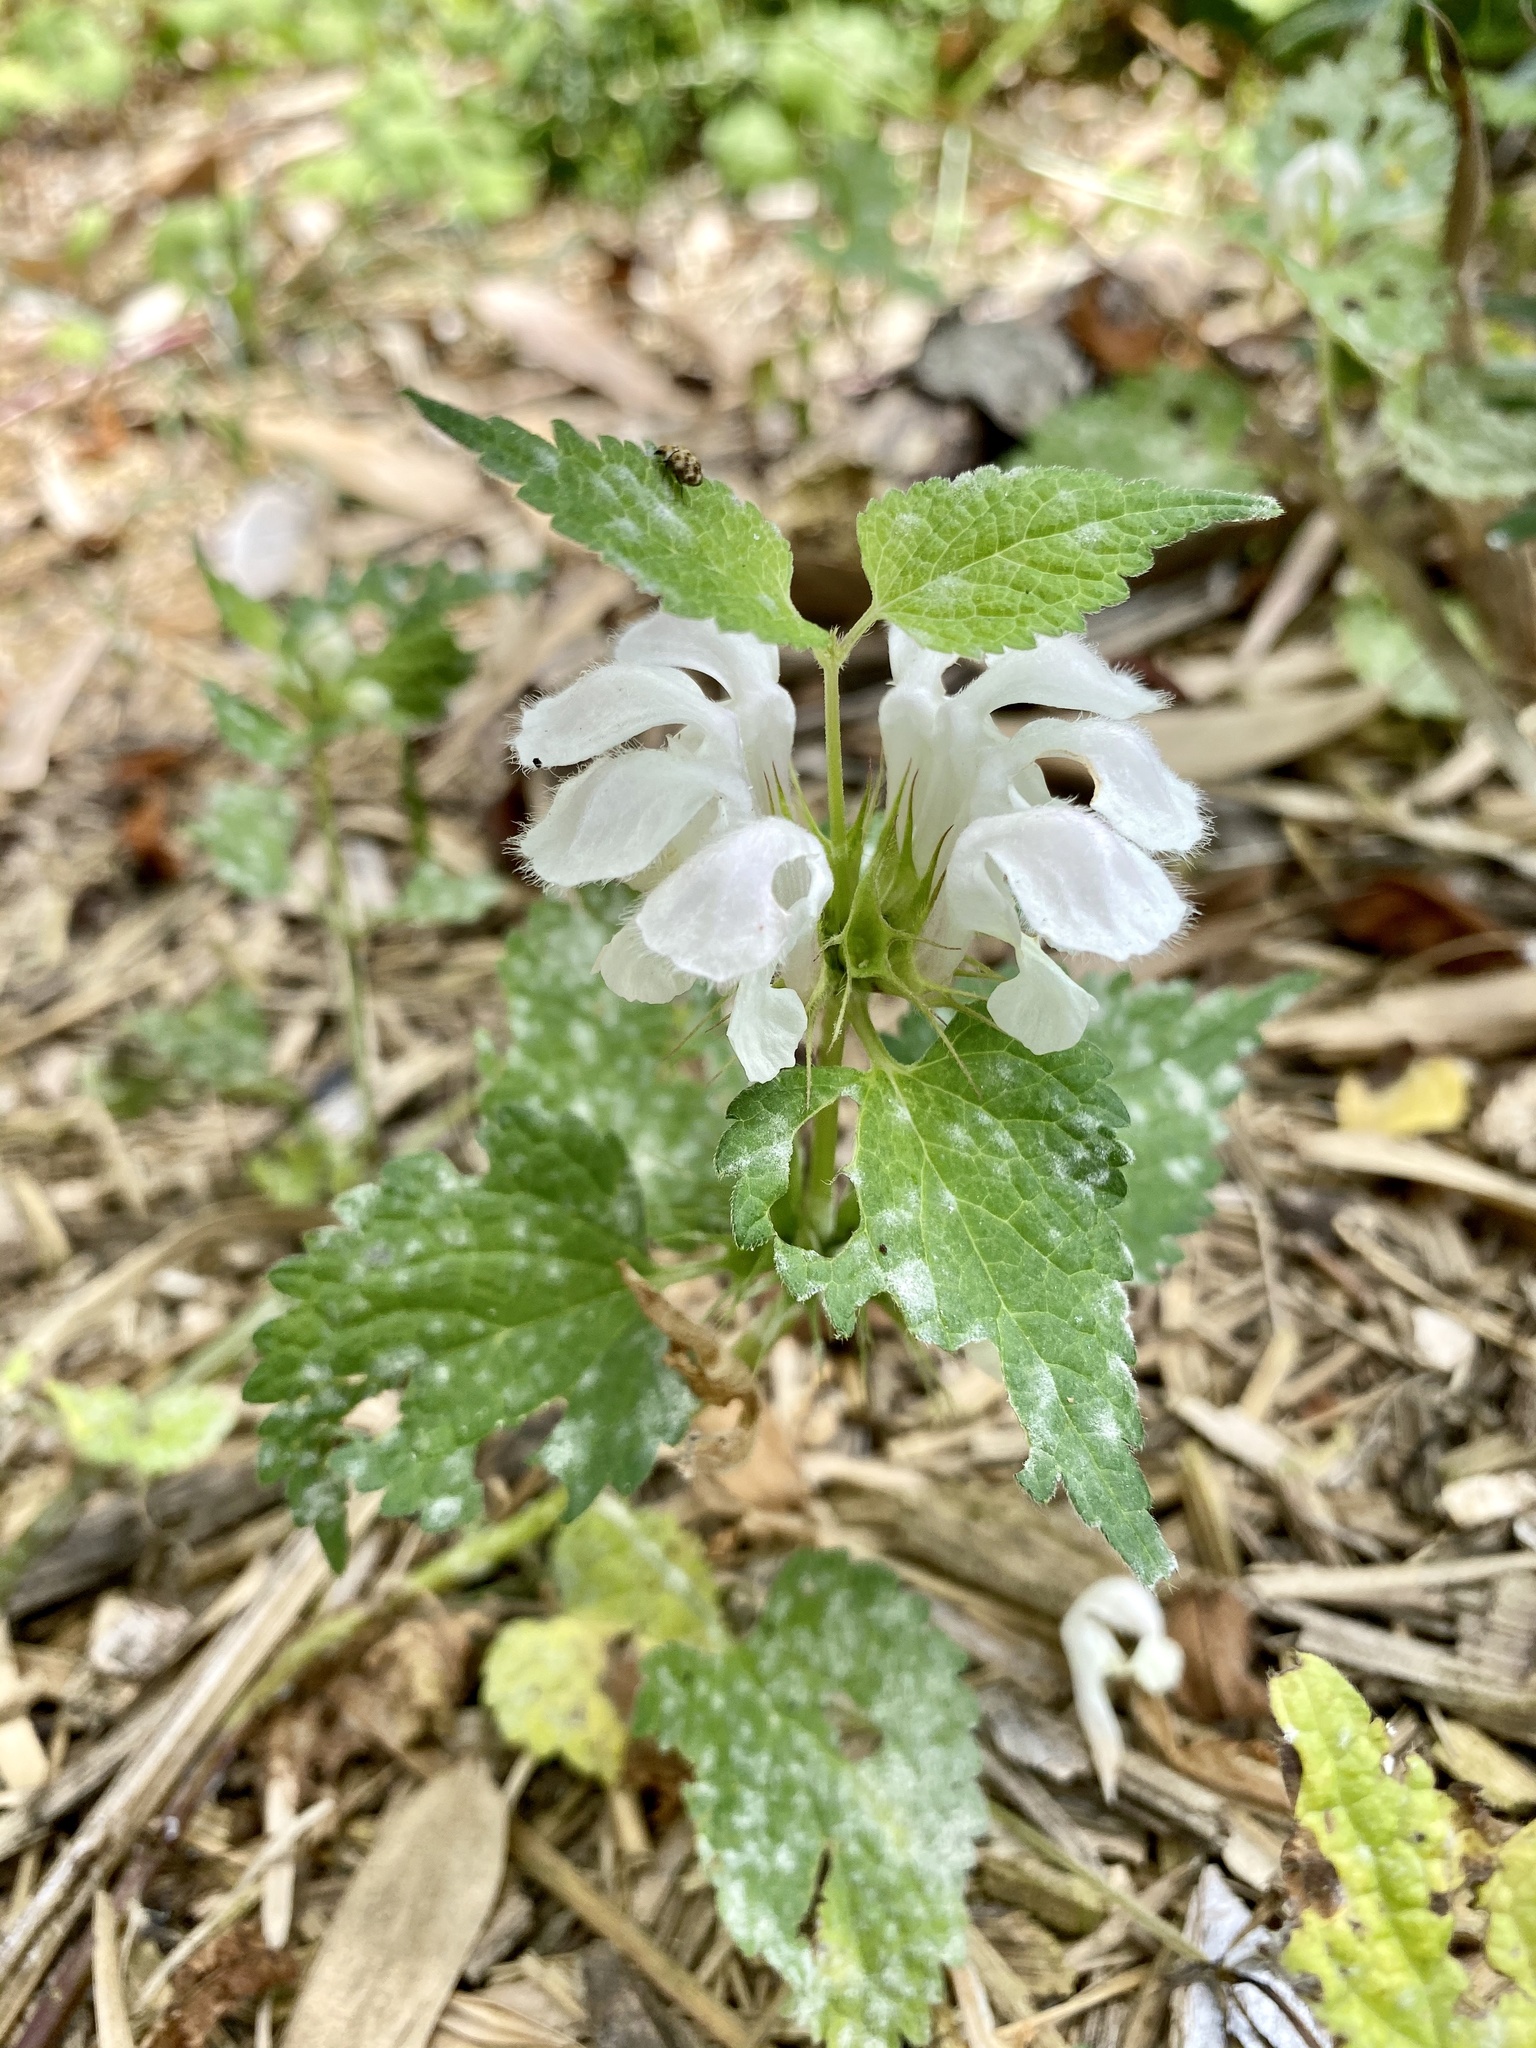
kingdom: Plantae
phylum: Tracheophyta
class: Magnoliopsida
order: Lamiales
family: Lamiaceae
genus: Lamium
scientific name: Lamium album
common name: White dead-nettle
